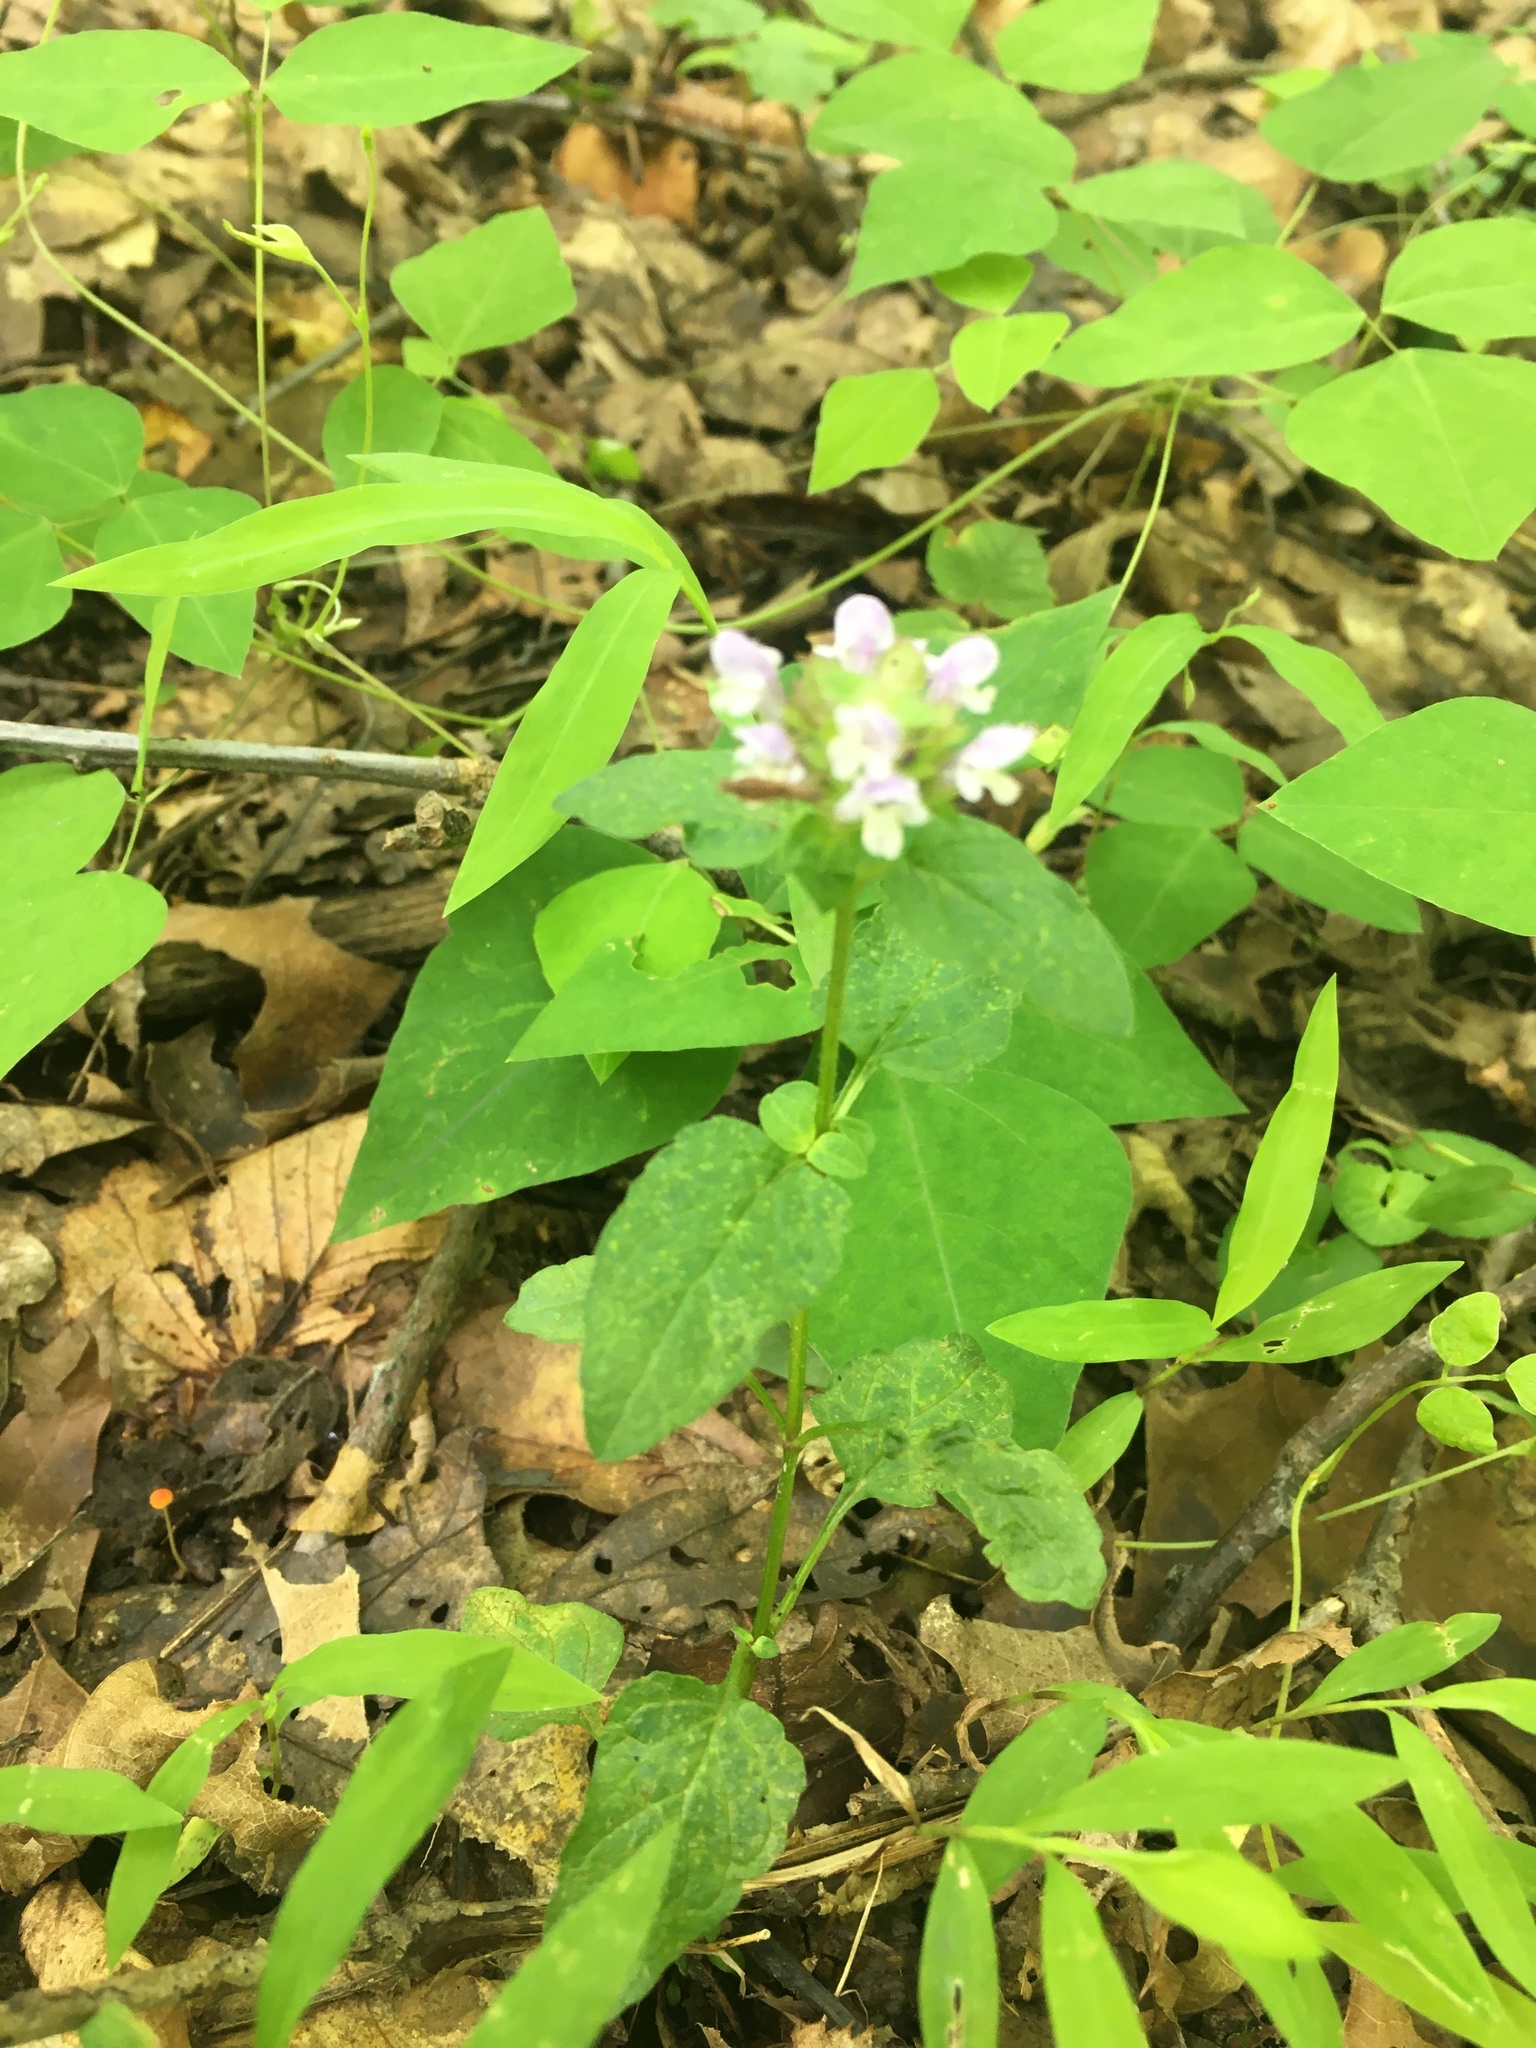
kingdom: Plantae
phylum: Tracheophyta
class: Magnoliopsida
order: Lamiales
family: Lamiaceae
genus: Prunella
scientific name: Prunella vulgaris
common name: Heal-all
